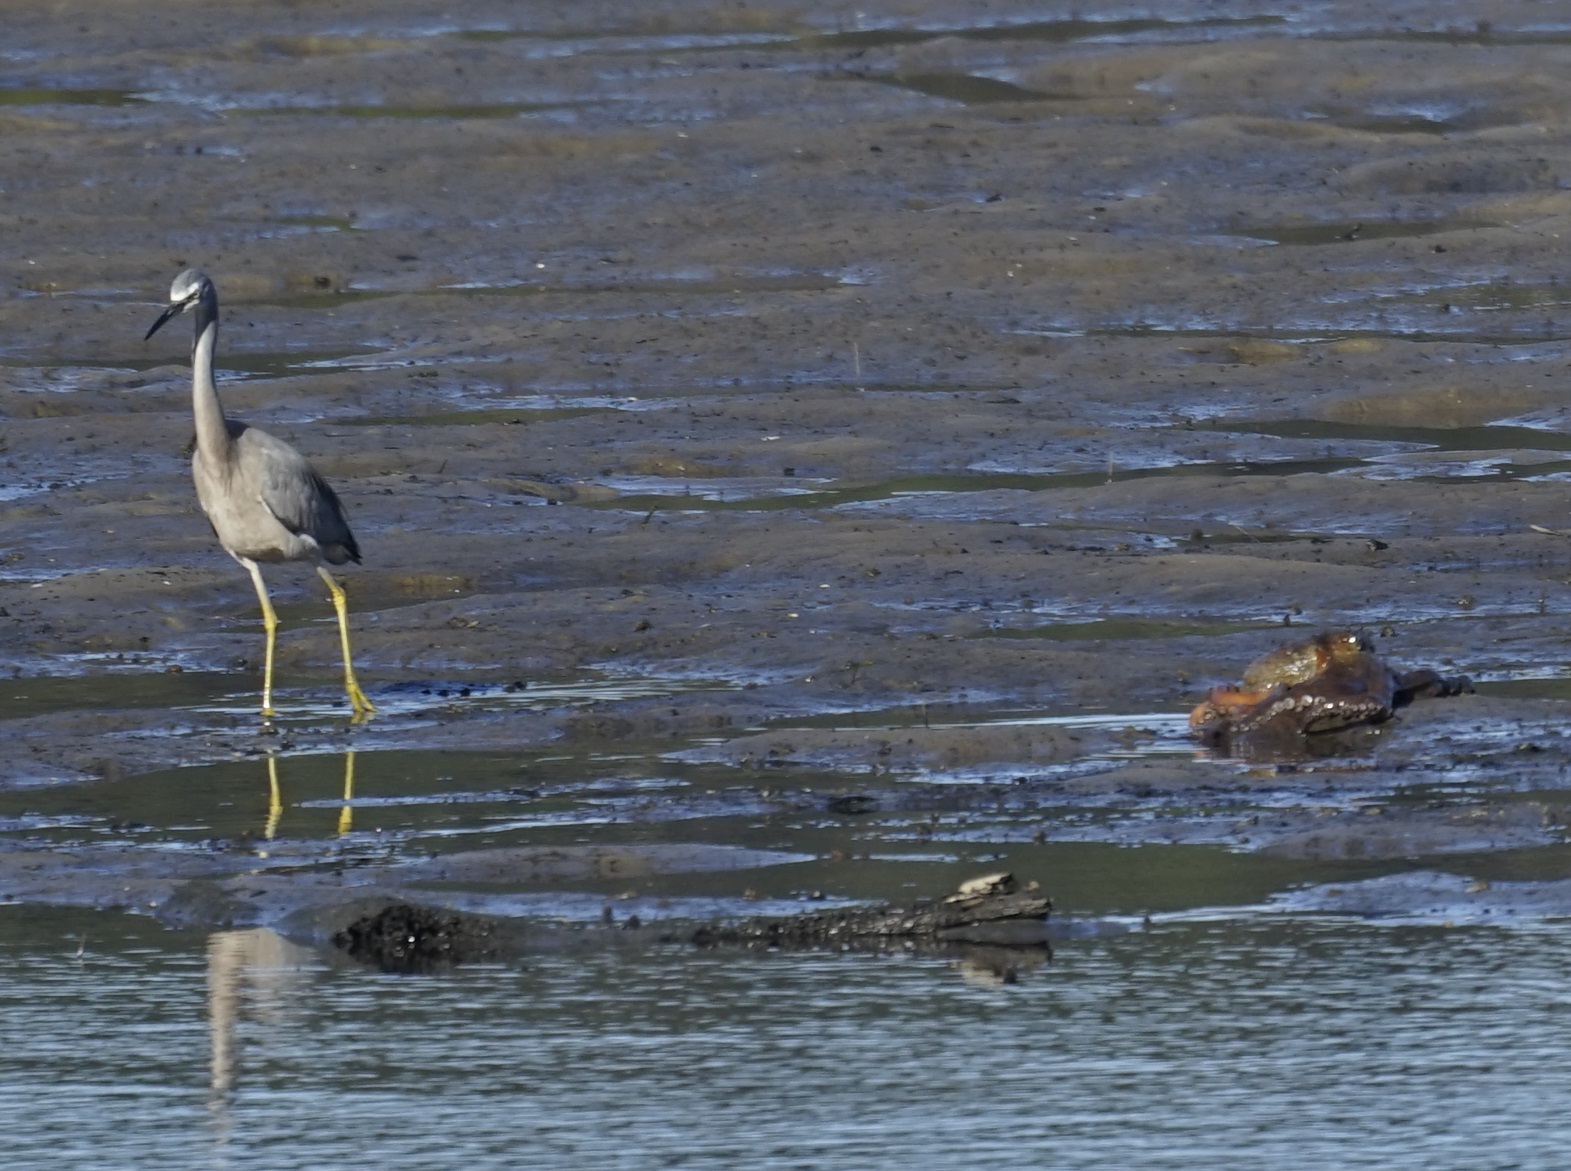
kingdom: Animalia
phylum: Mollusca
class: Cephalopoda
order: Octopoda
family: Octopodidae
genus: Octopus
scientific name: Octopus tetricus
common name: Sydney octopus
